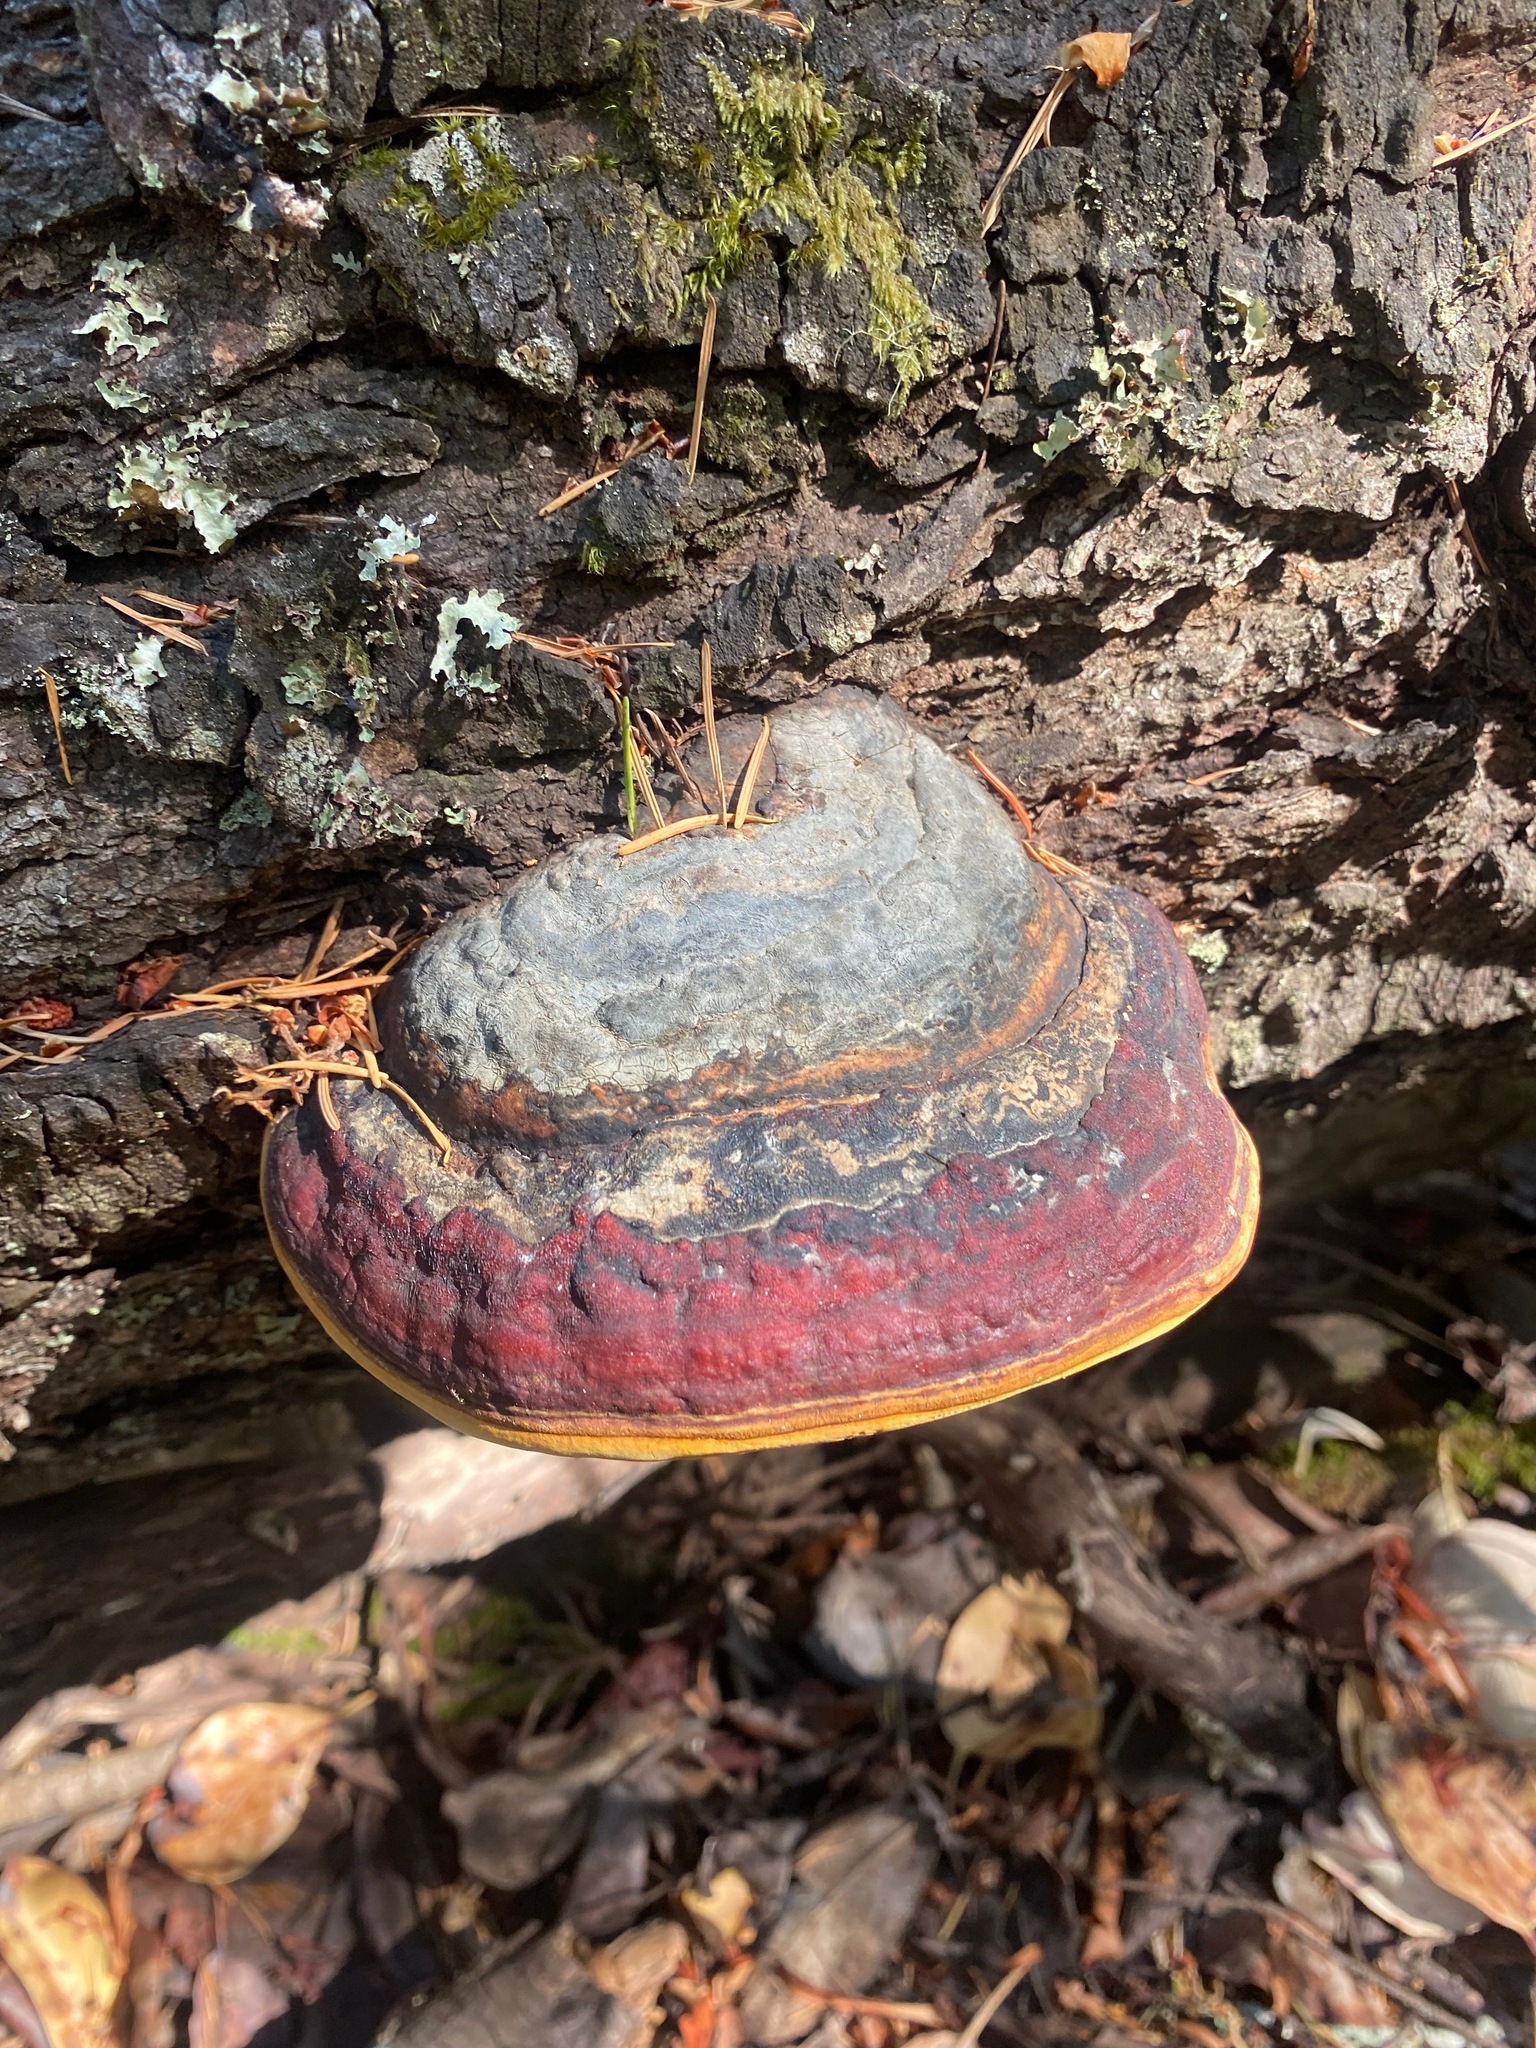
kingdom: Fungi
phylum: Basidiomycota
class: Agaricomycetes
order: Polyporales
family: Fomitopsidaceae
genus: Fomitopsis
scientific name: Fomitopsis mounceae
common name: Northern red belt
